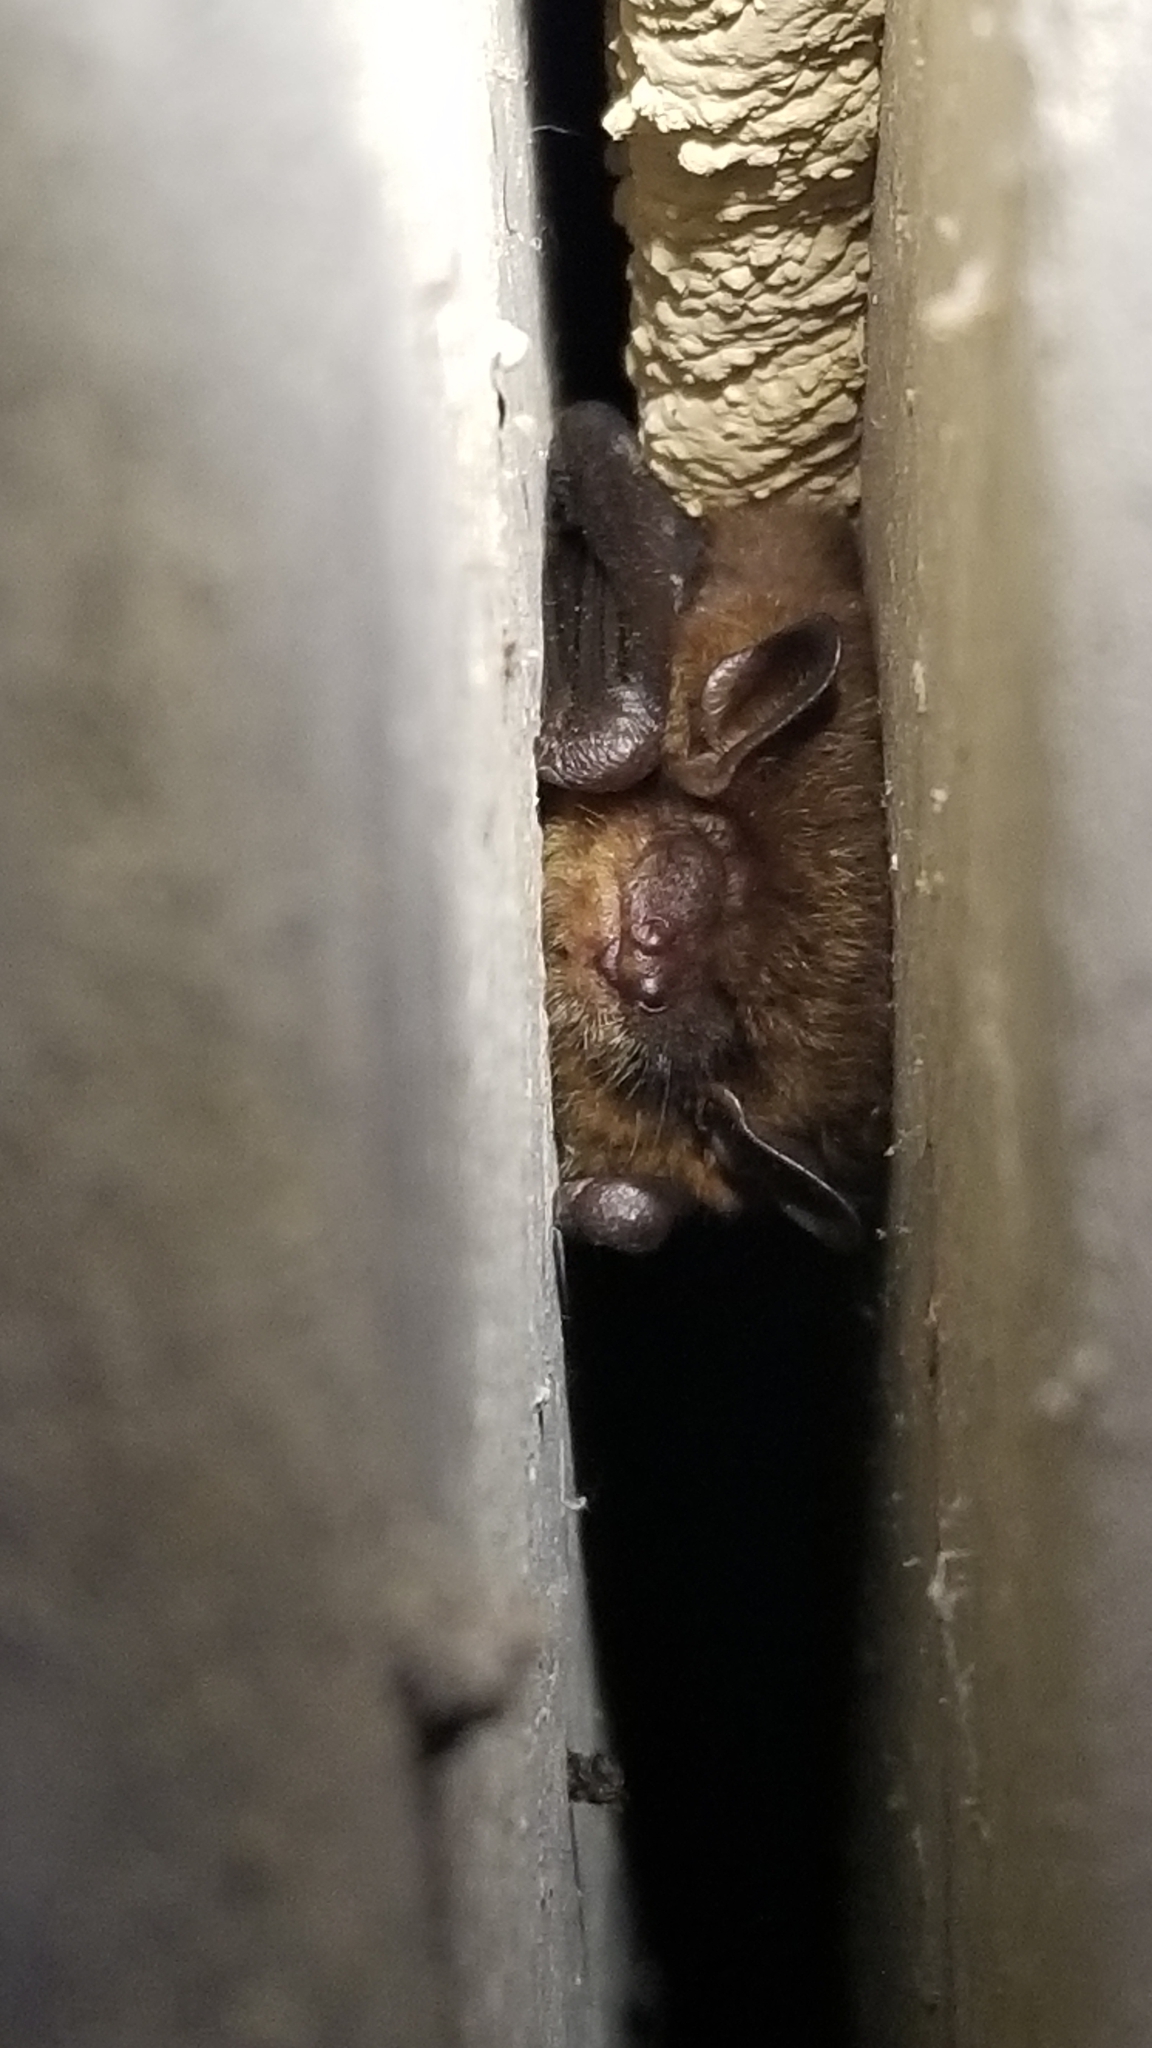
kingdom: Animalia
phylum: Chordata
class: Mammalia
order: Chiroptera
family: Vespertilionidae
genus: Eptesicus
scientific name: Eptesicus fuscus
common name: Big brown bat
